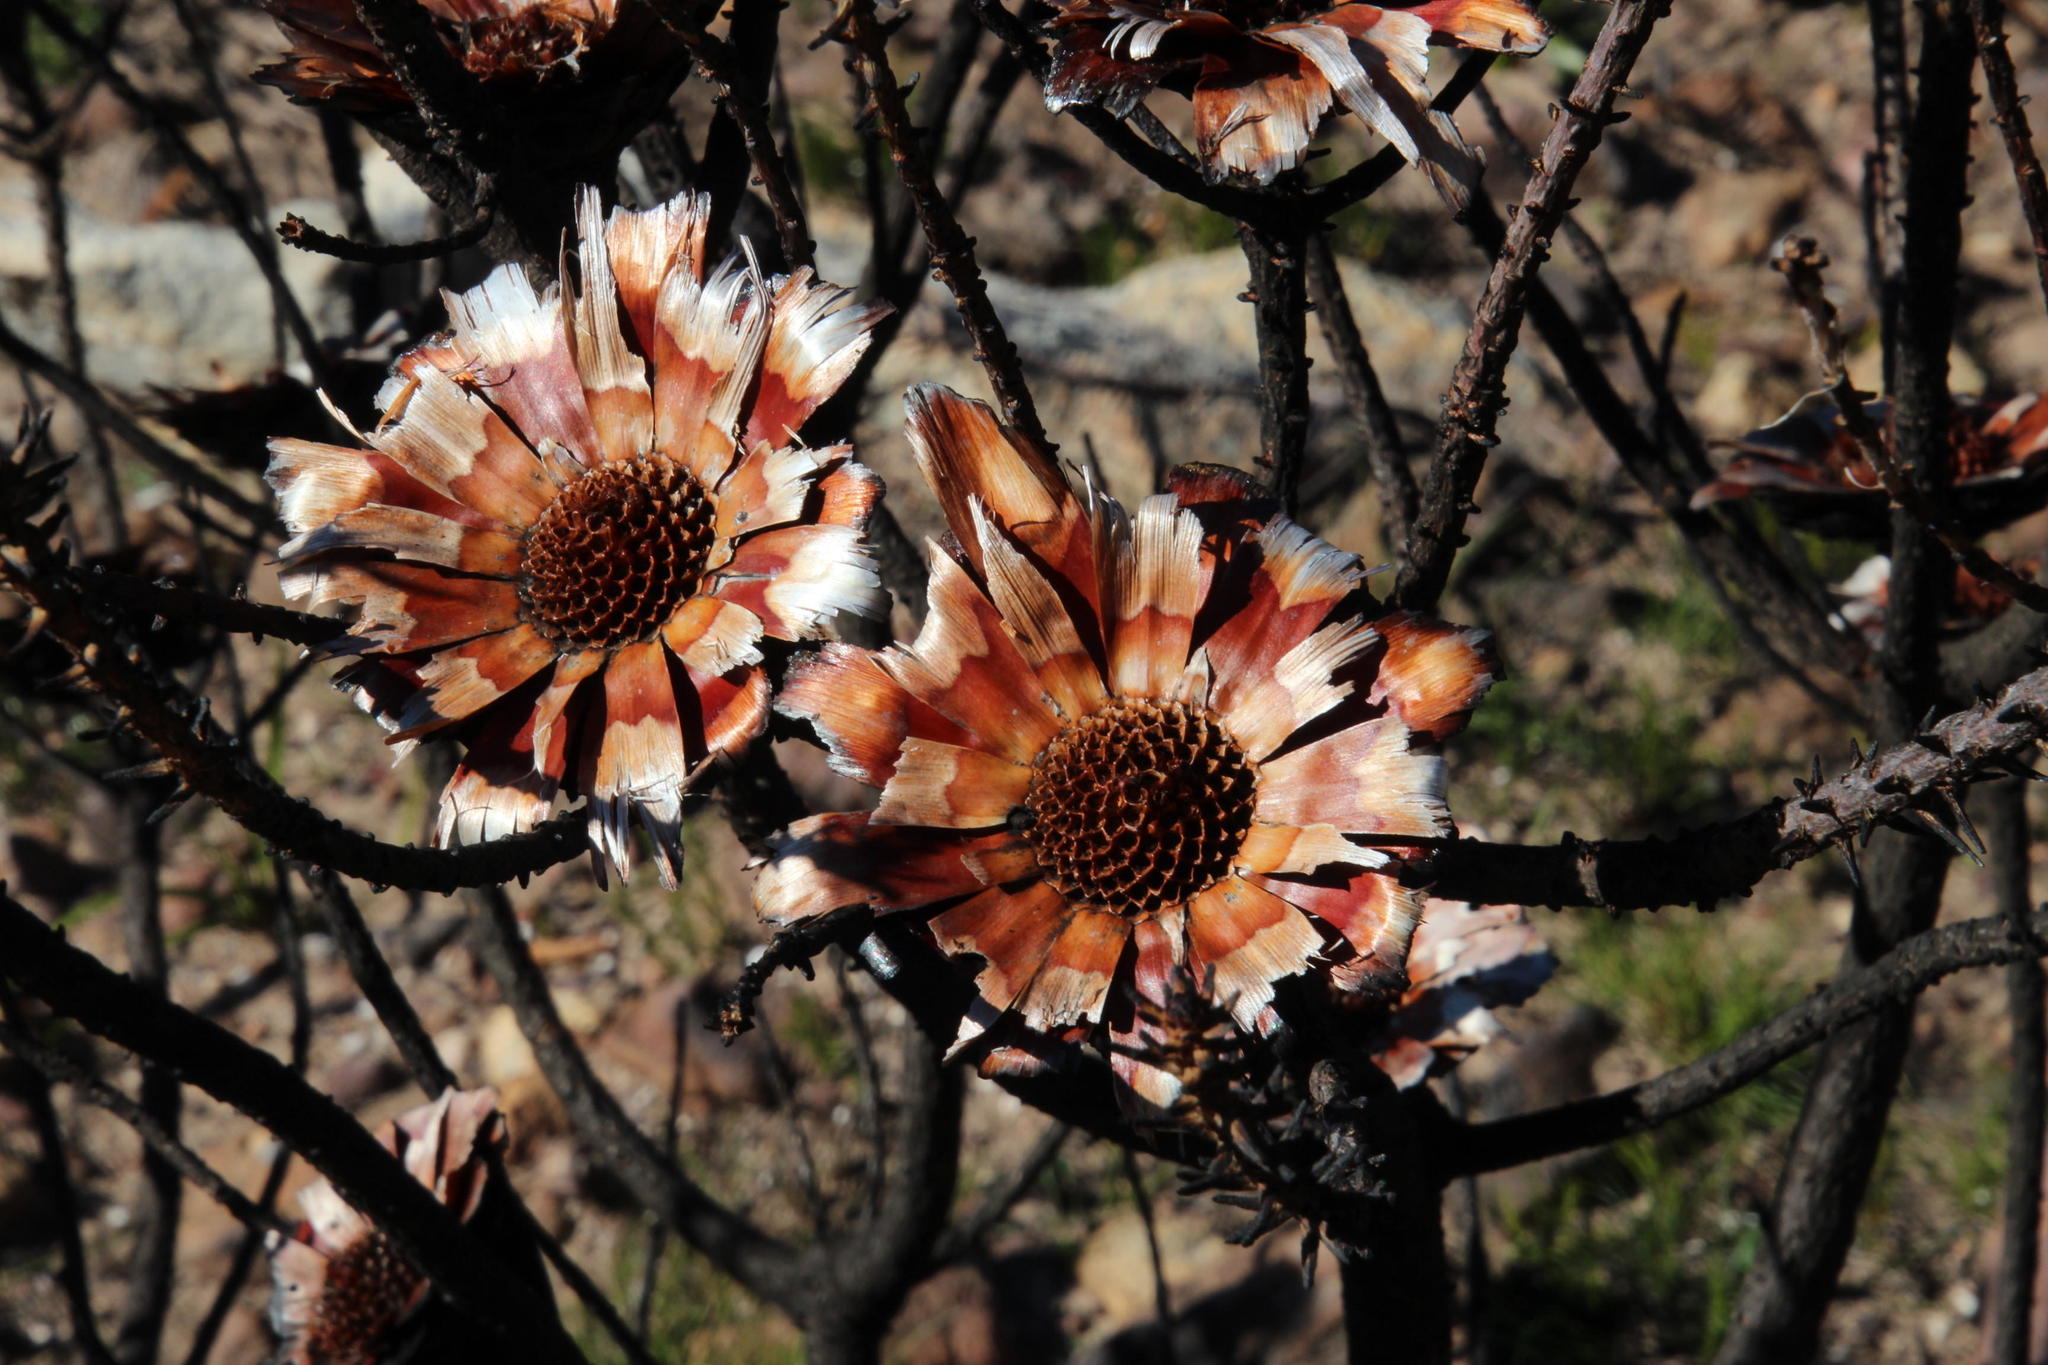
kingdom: Plantae
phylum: Tracheophyta
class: Magnoliopsida
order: Proteales
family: Proteaceae
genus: Protea
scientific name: Protea repens
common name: Sugarbush
